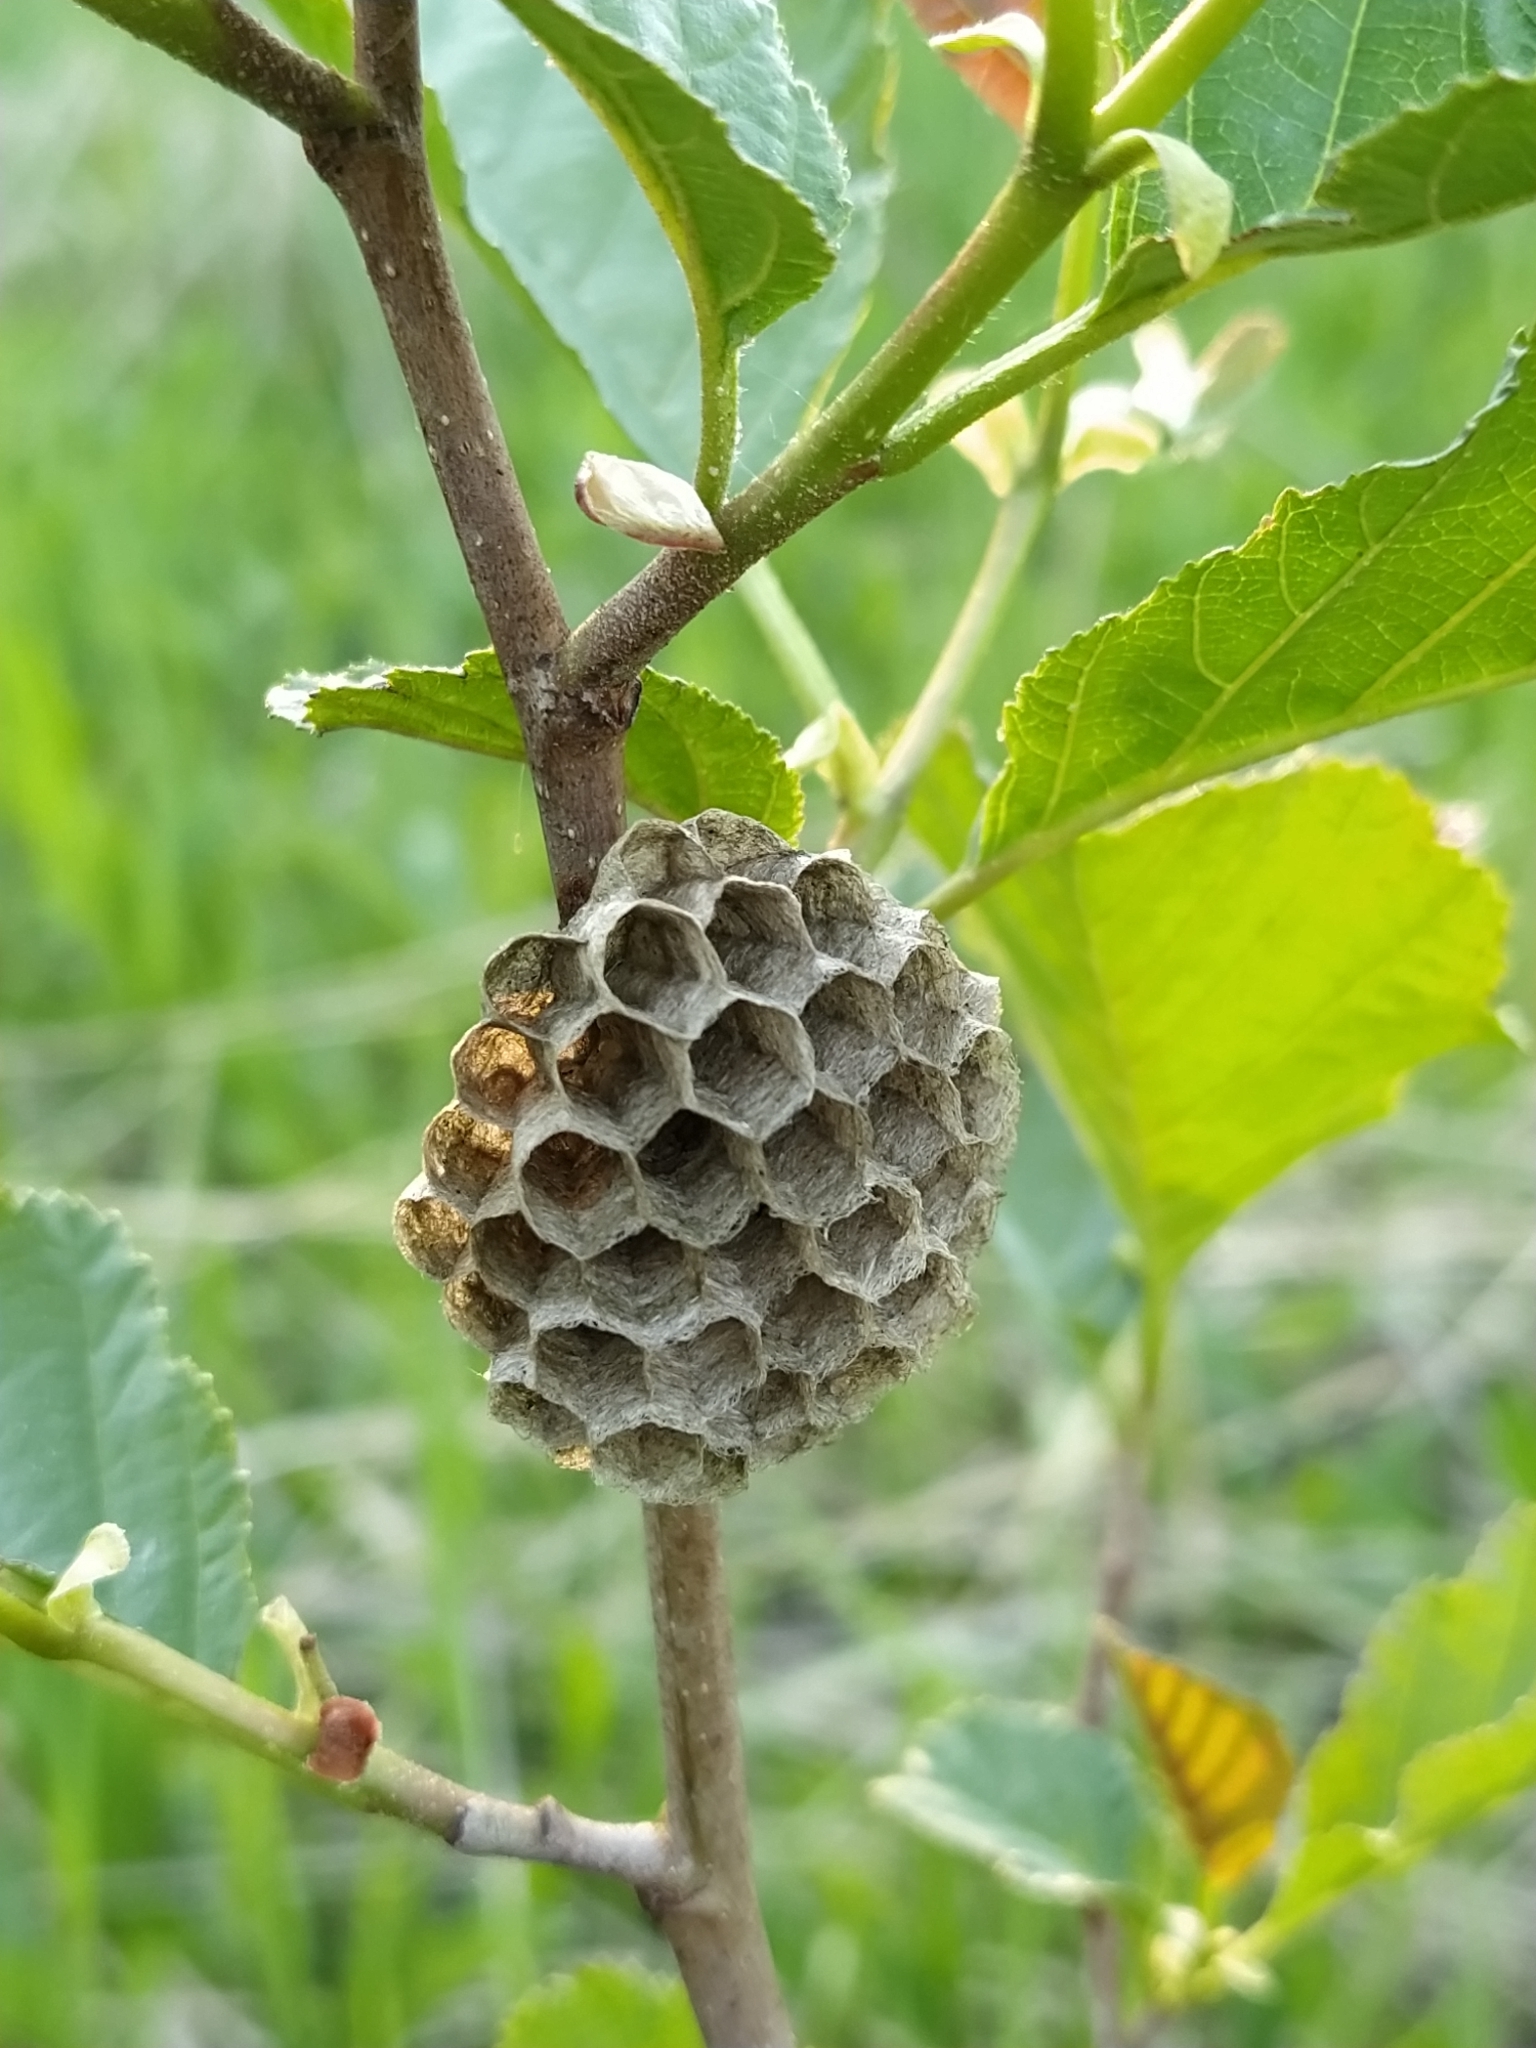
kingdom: Animalia
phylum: Arthropoda
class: Insecta
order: Hymenoptera
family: Eumenidae
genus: Polistes
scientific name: Polistes
